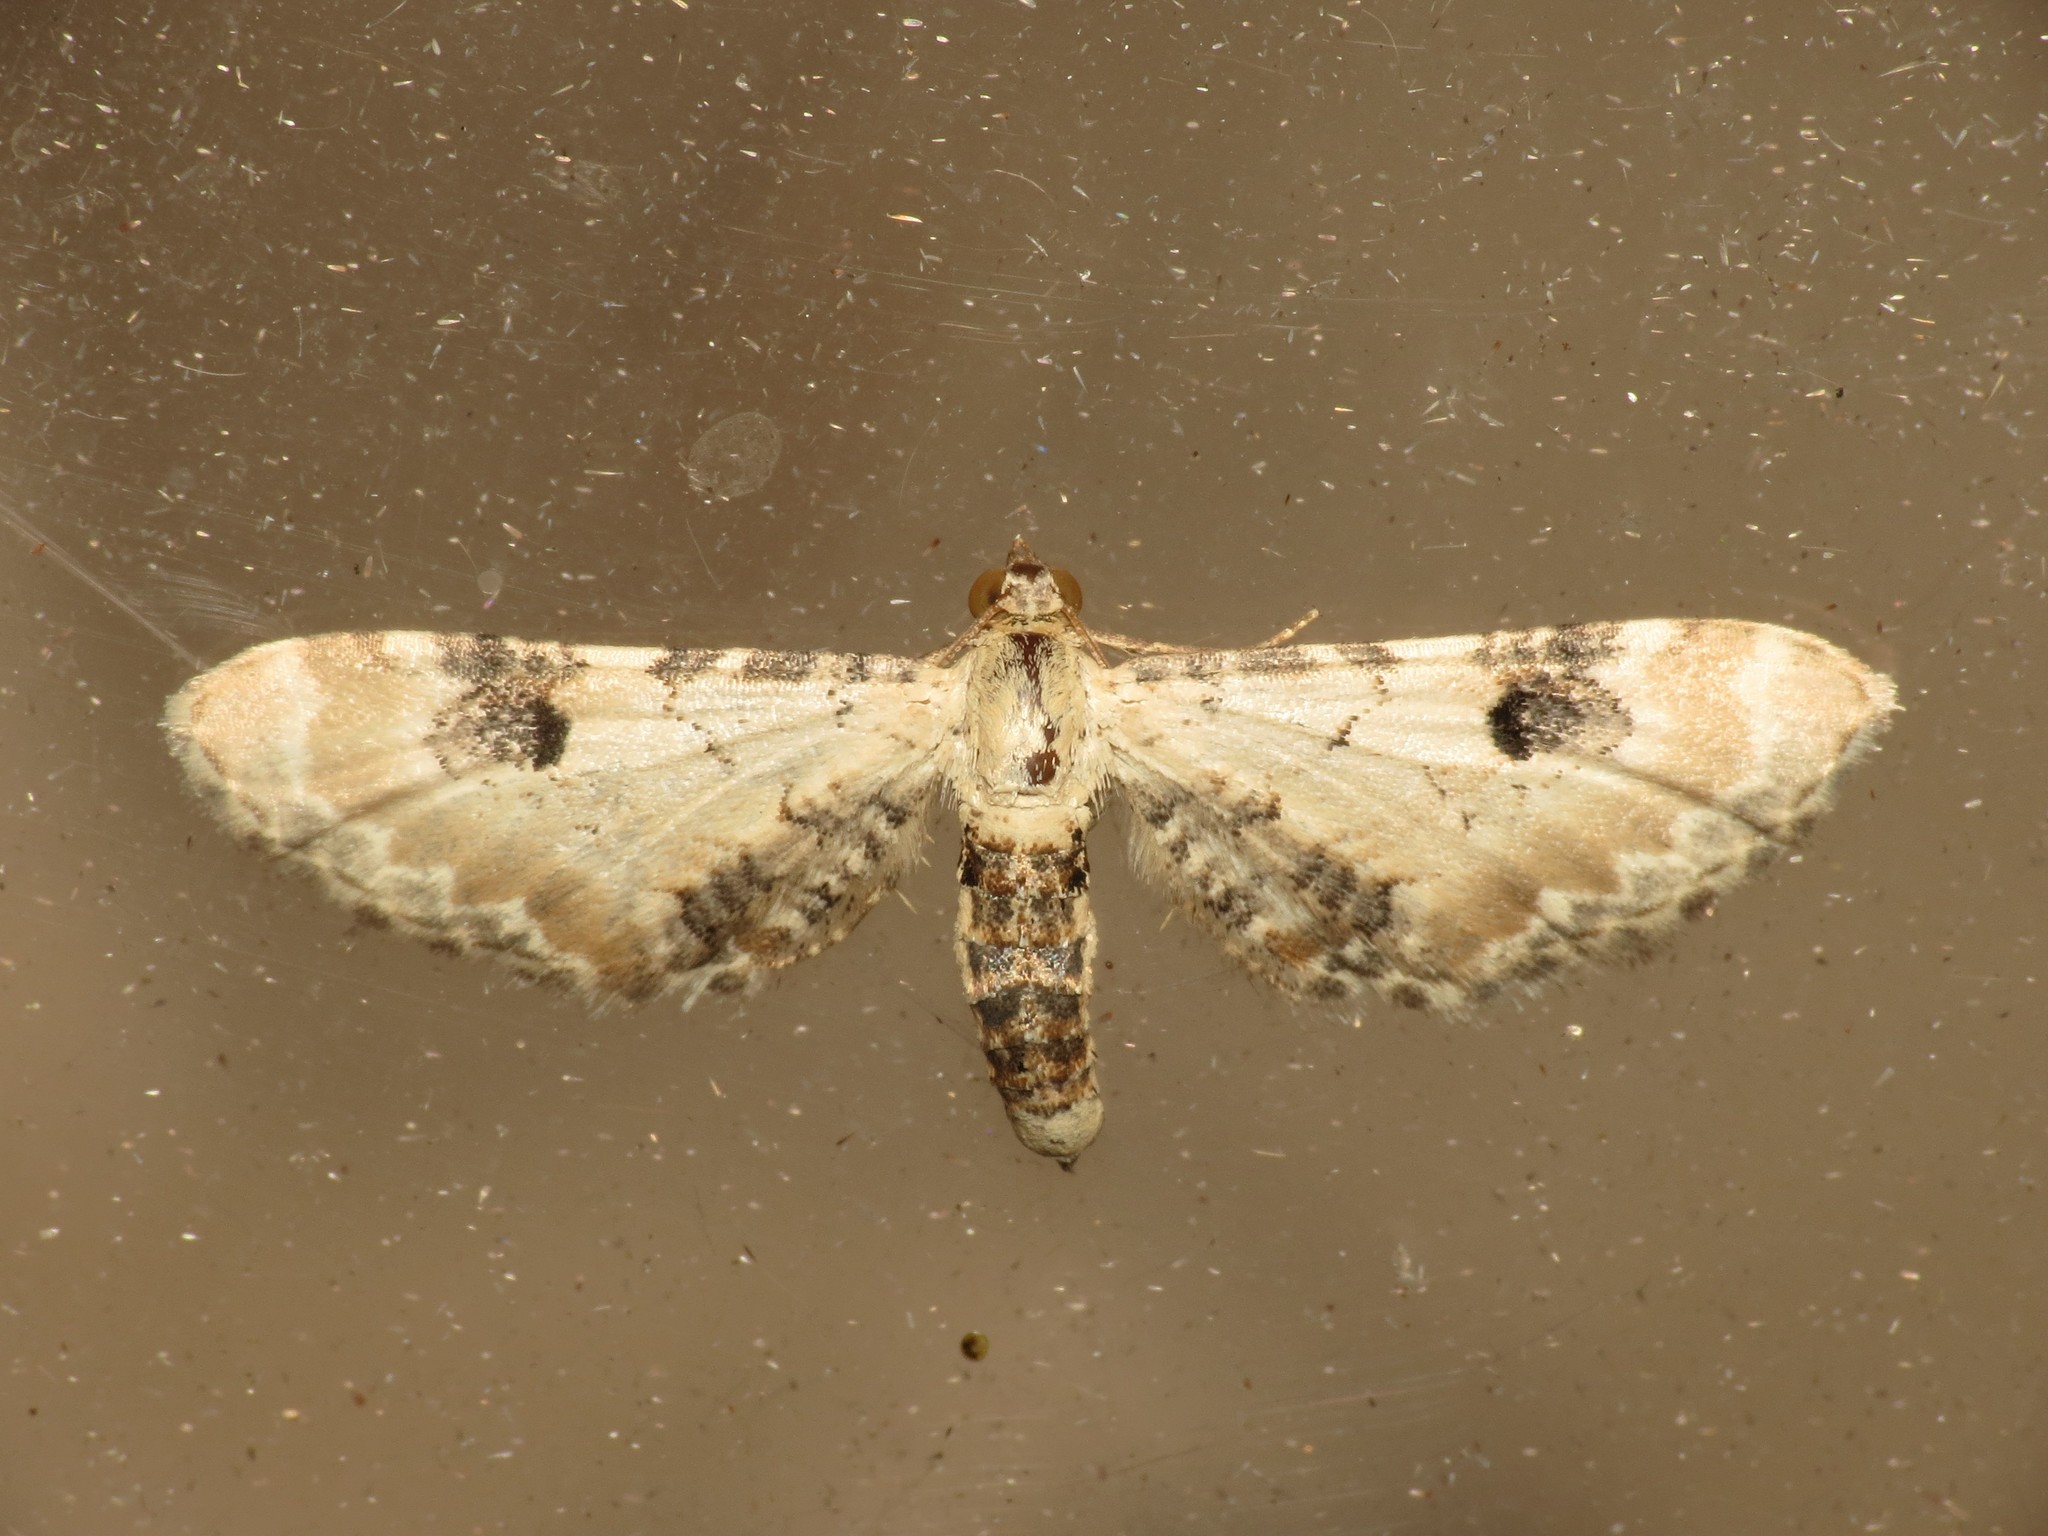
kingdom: Animalia
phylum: Arthropoda
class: Insecta
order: Lepidoptera
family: Geometridae
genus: Eupithecia
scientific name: Eupithecia centaureata
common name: Lime-speck pug
